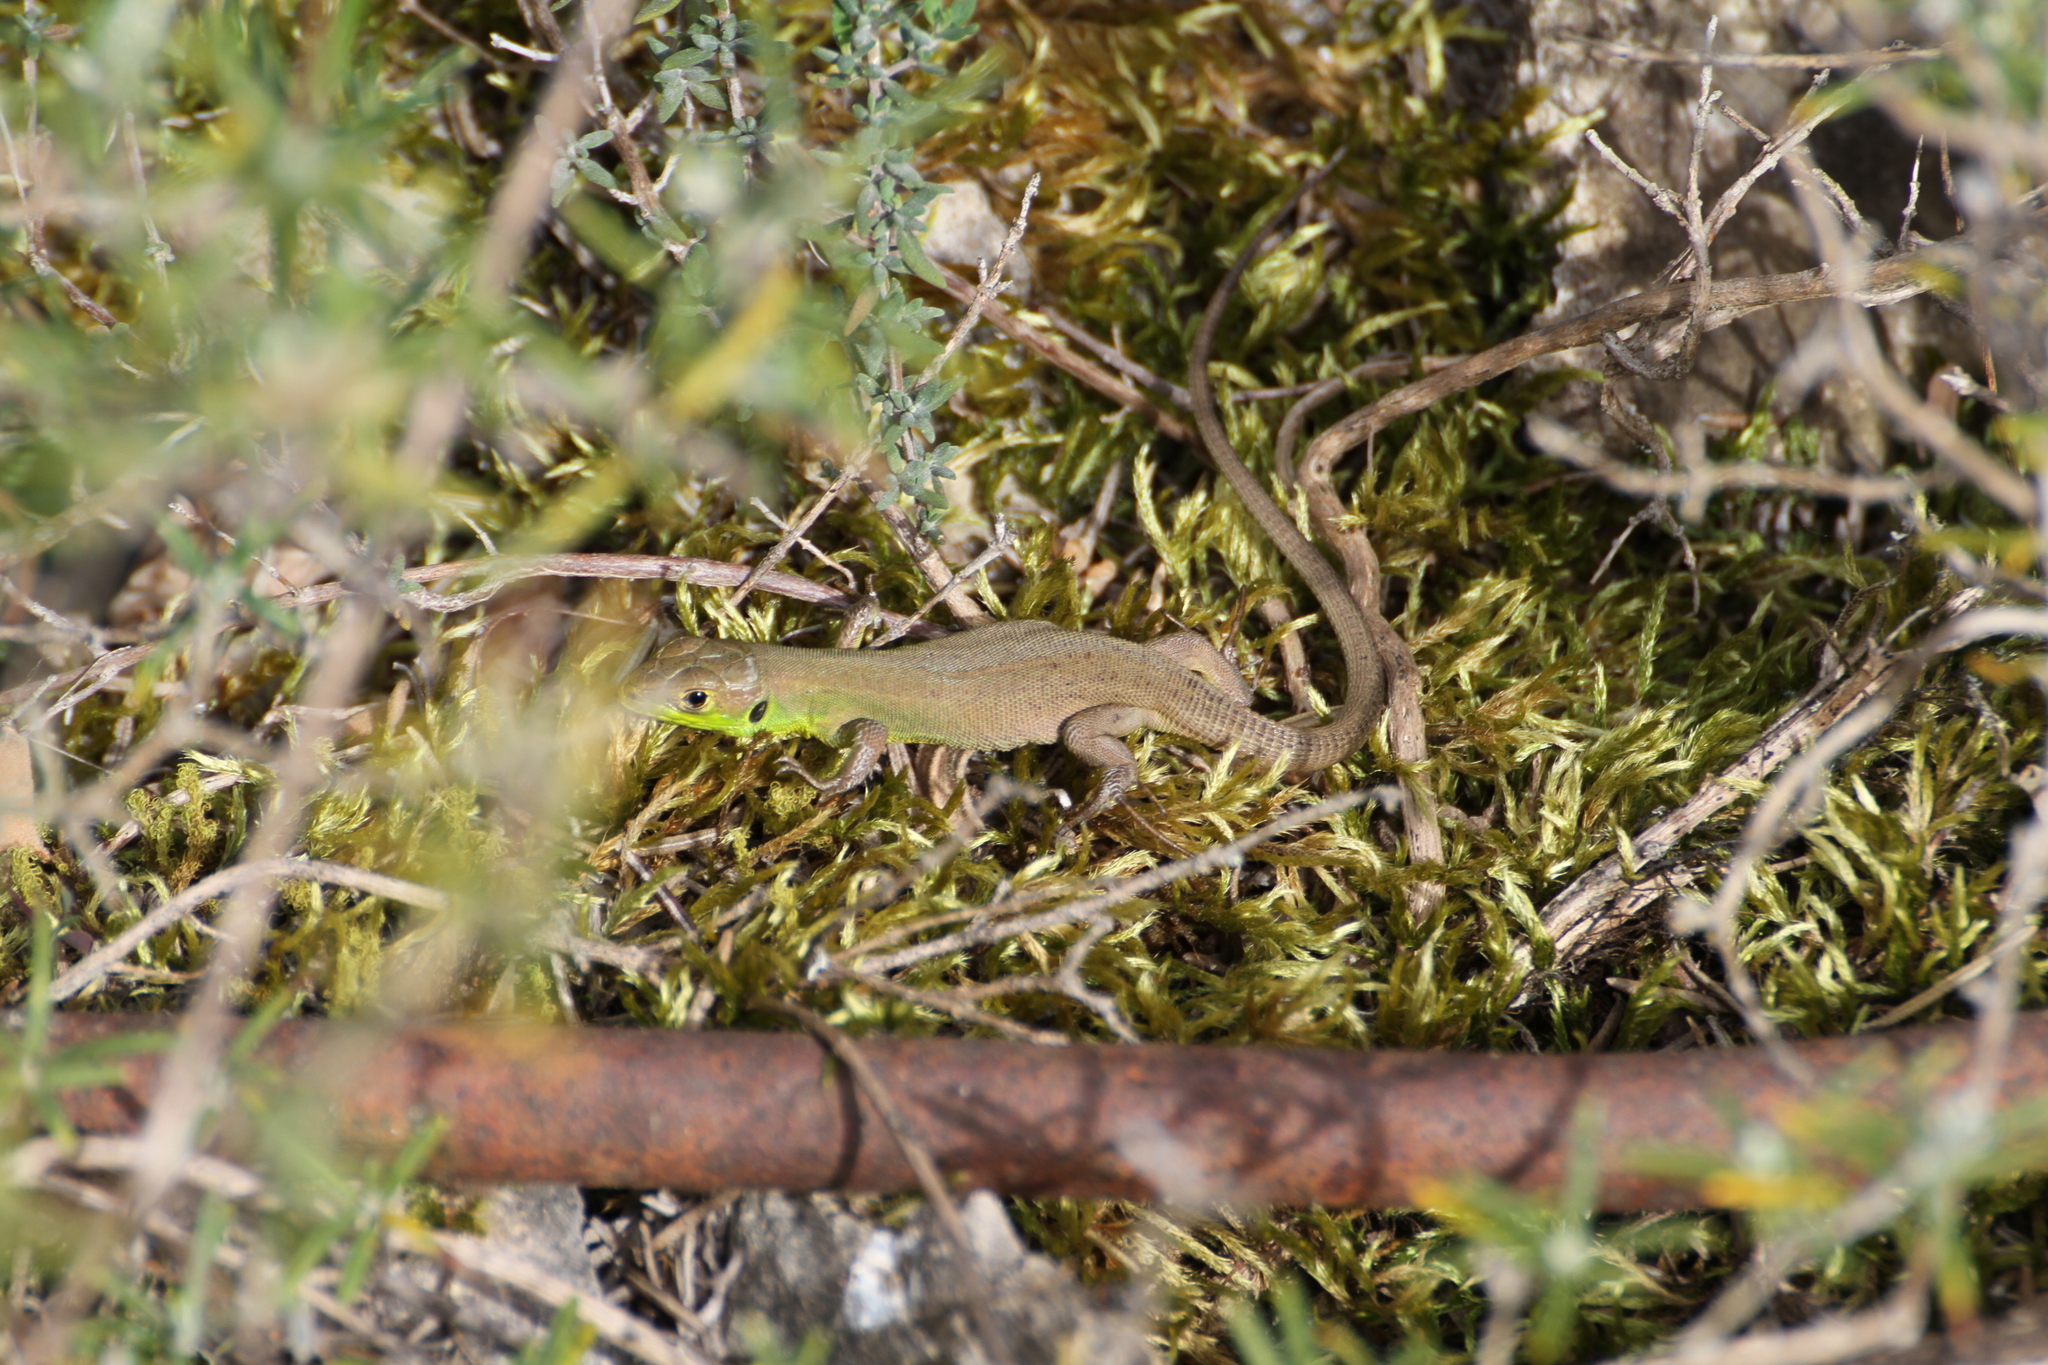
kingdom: Animalia
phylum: Chordata
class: Squamata
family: Lacertidae
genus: Lacerta
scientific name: Lacerta bilineata
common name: Western green lizard
